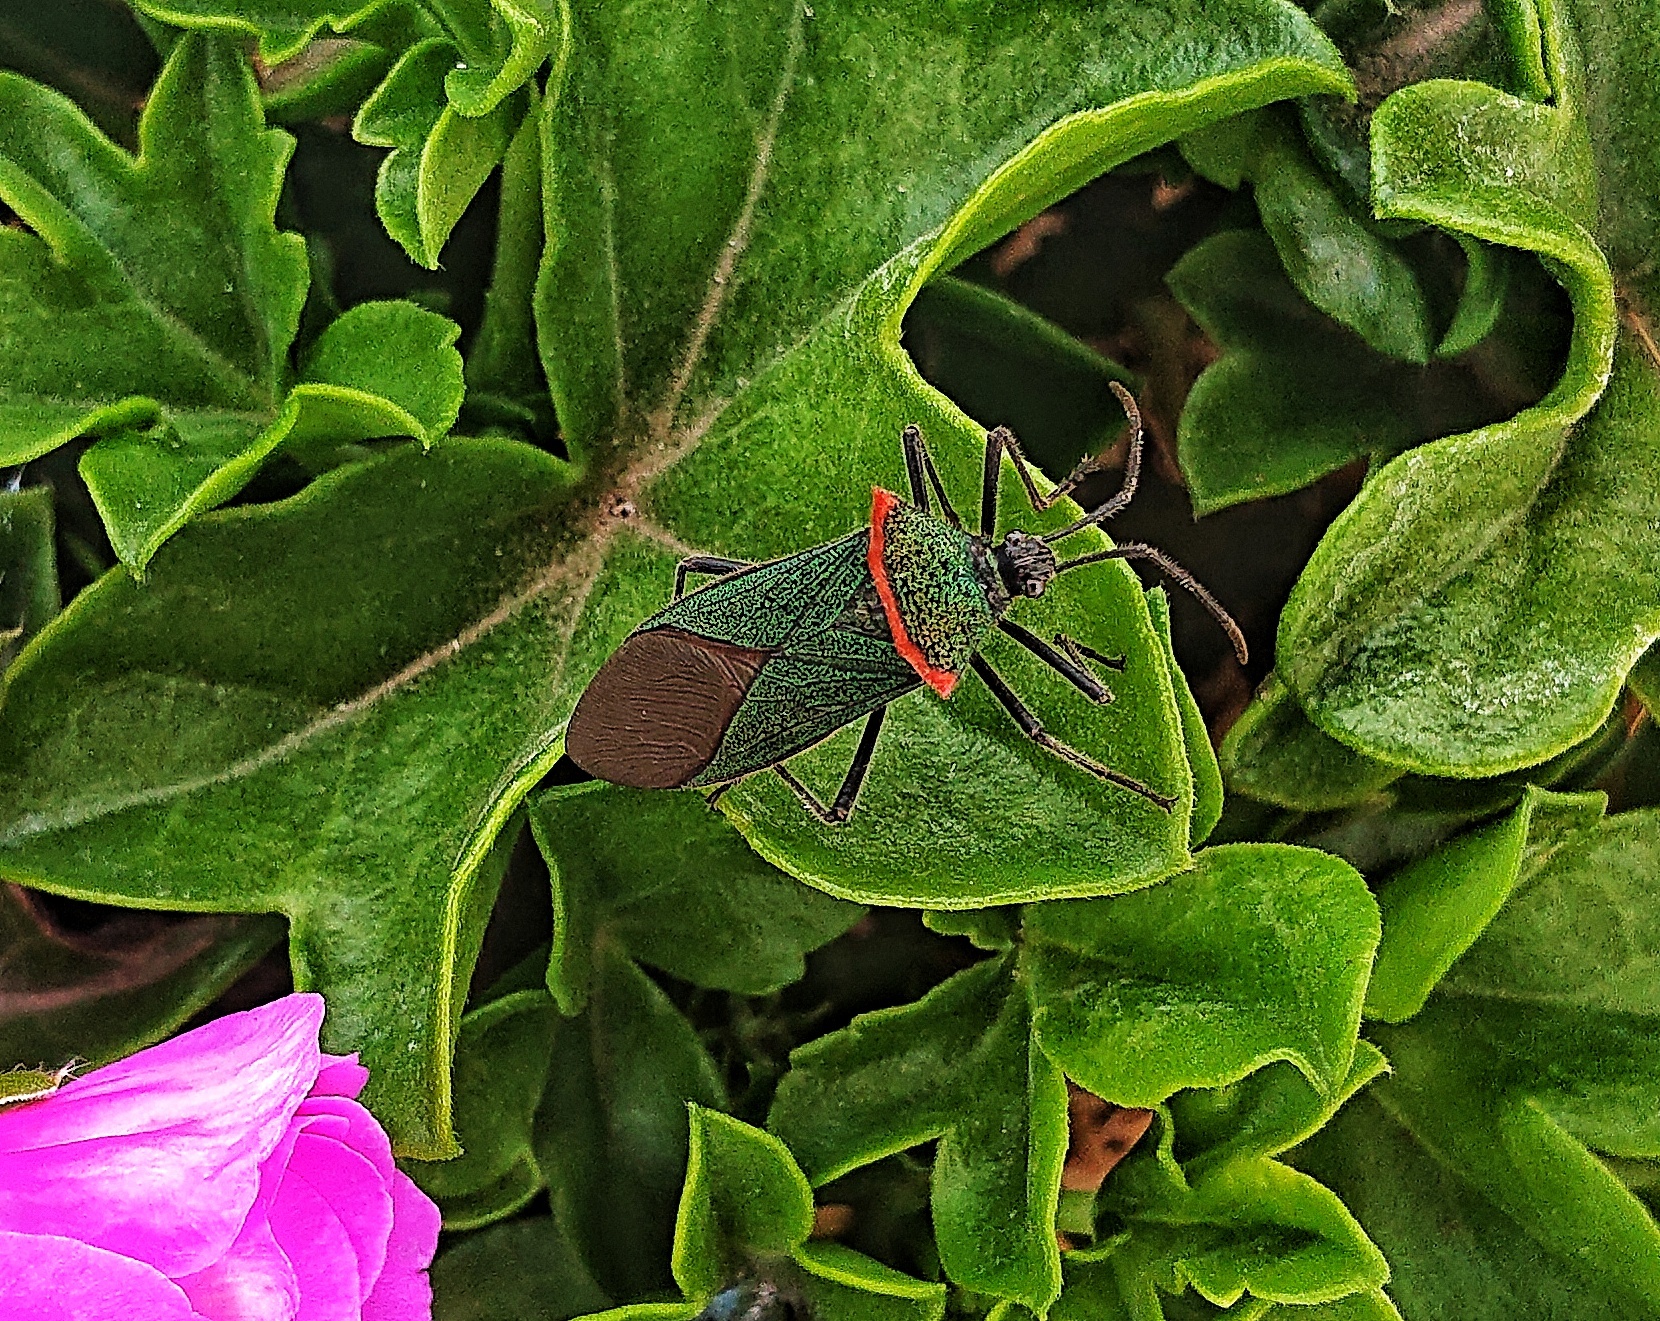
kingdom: Animalia
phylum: Arthropoda
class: Insecta
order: Hemiptera
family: Coreidae
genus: Sphictyrtus
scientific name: Sphictyrtus bifibulus
